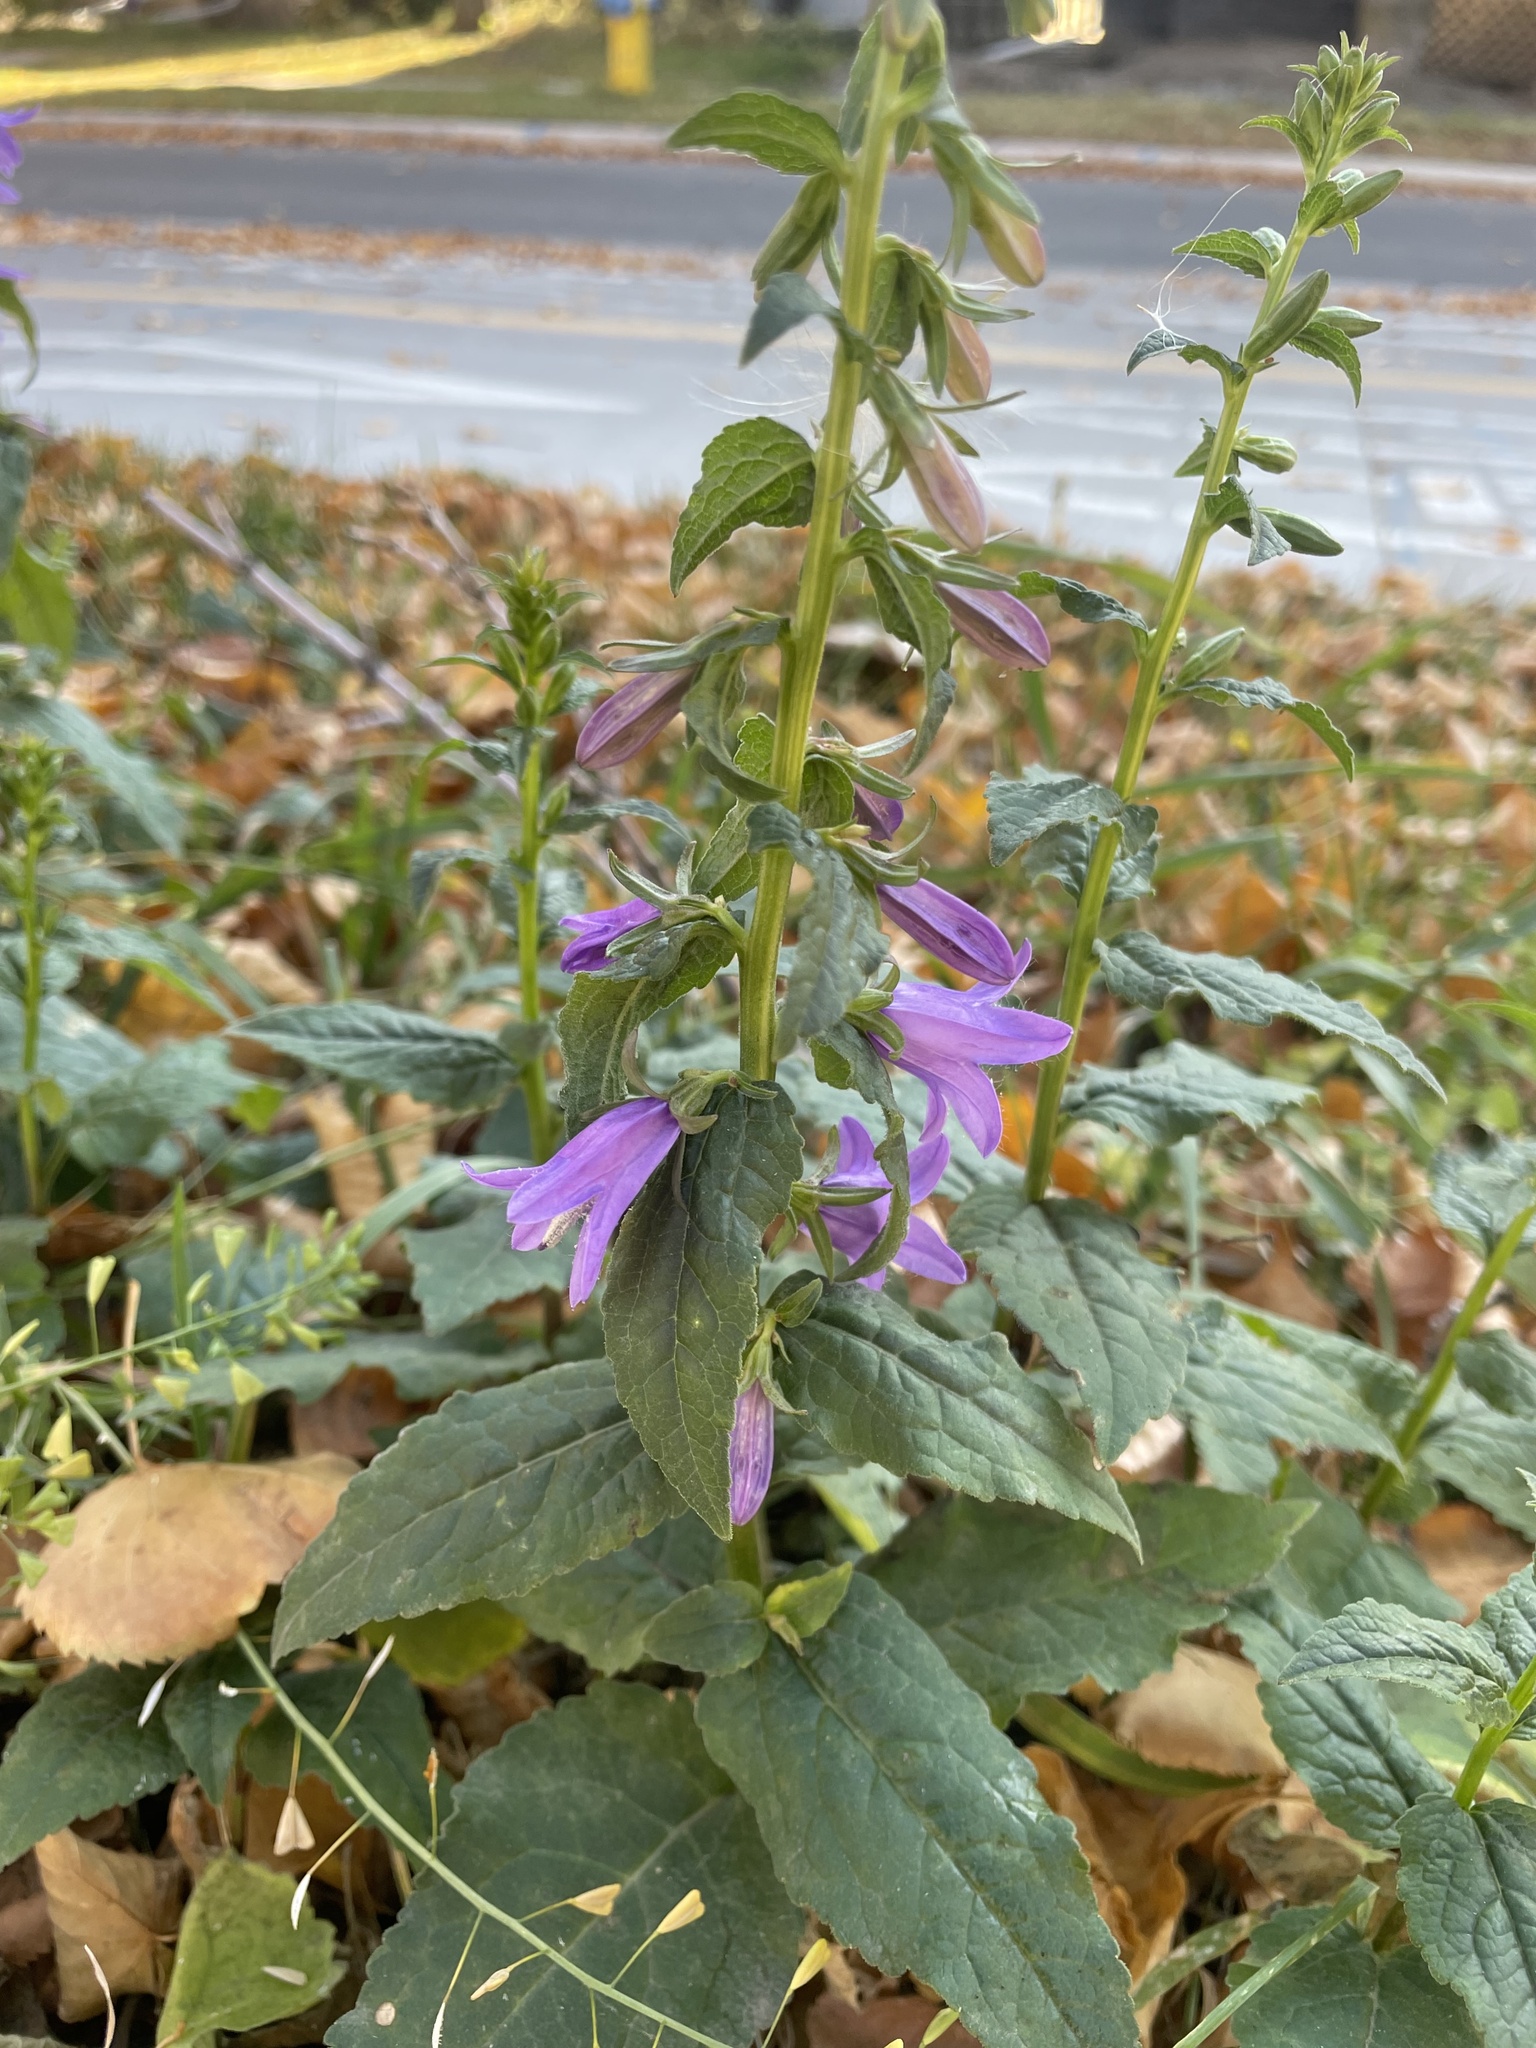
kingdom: Plantae
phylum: Tracheophyta
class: Magnoliopsida
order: Asterales
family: Campanulaceae
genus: Campanula
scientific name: Campanula rapunculoides
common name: Creeping bellflower
